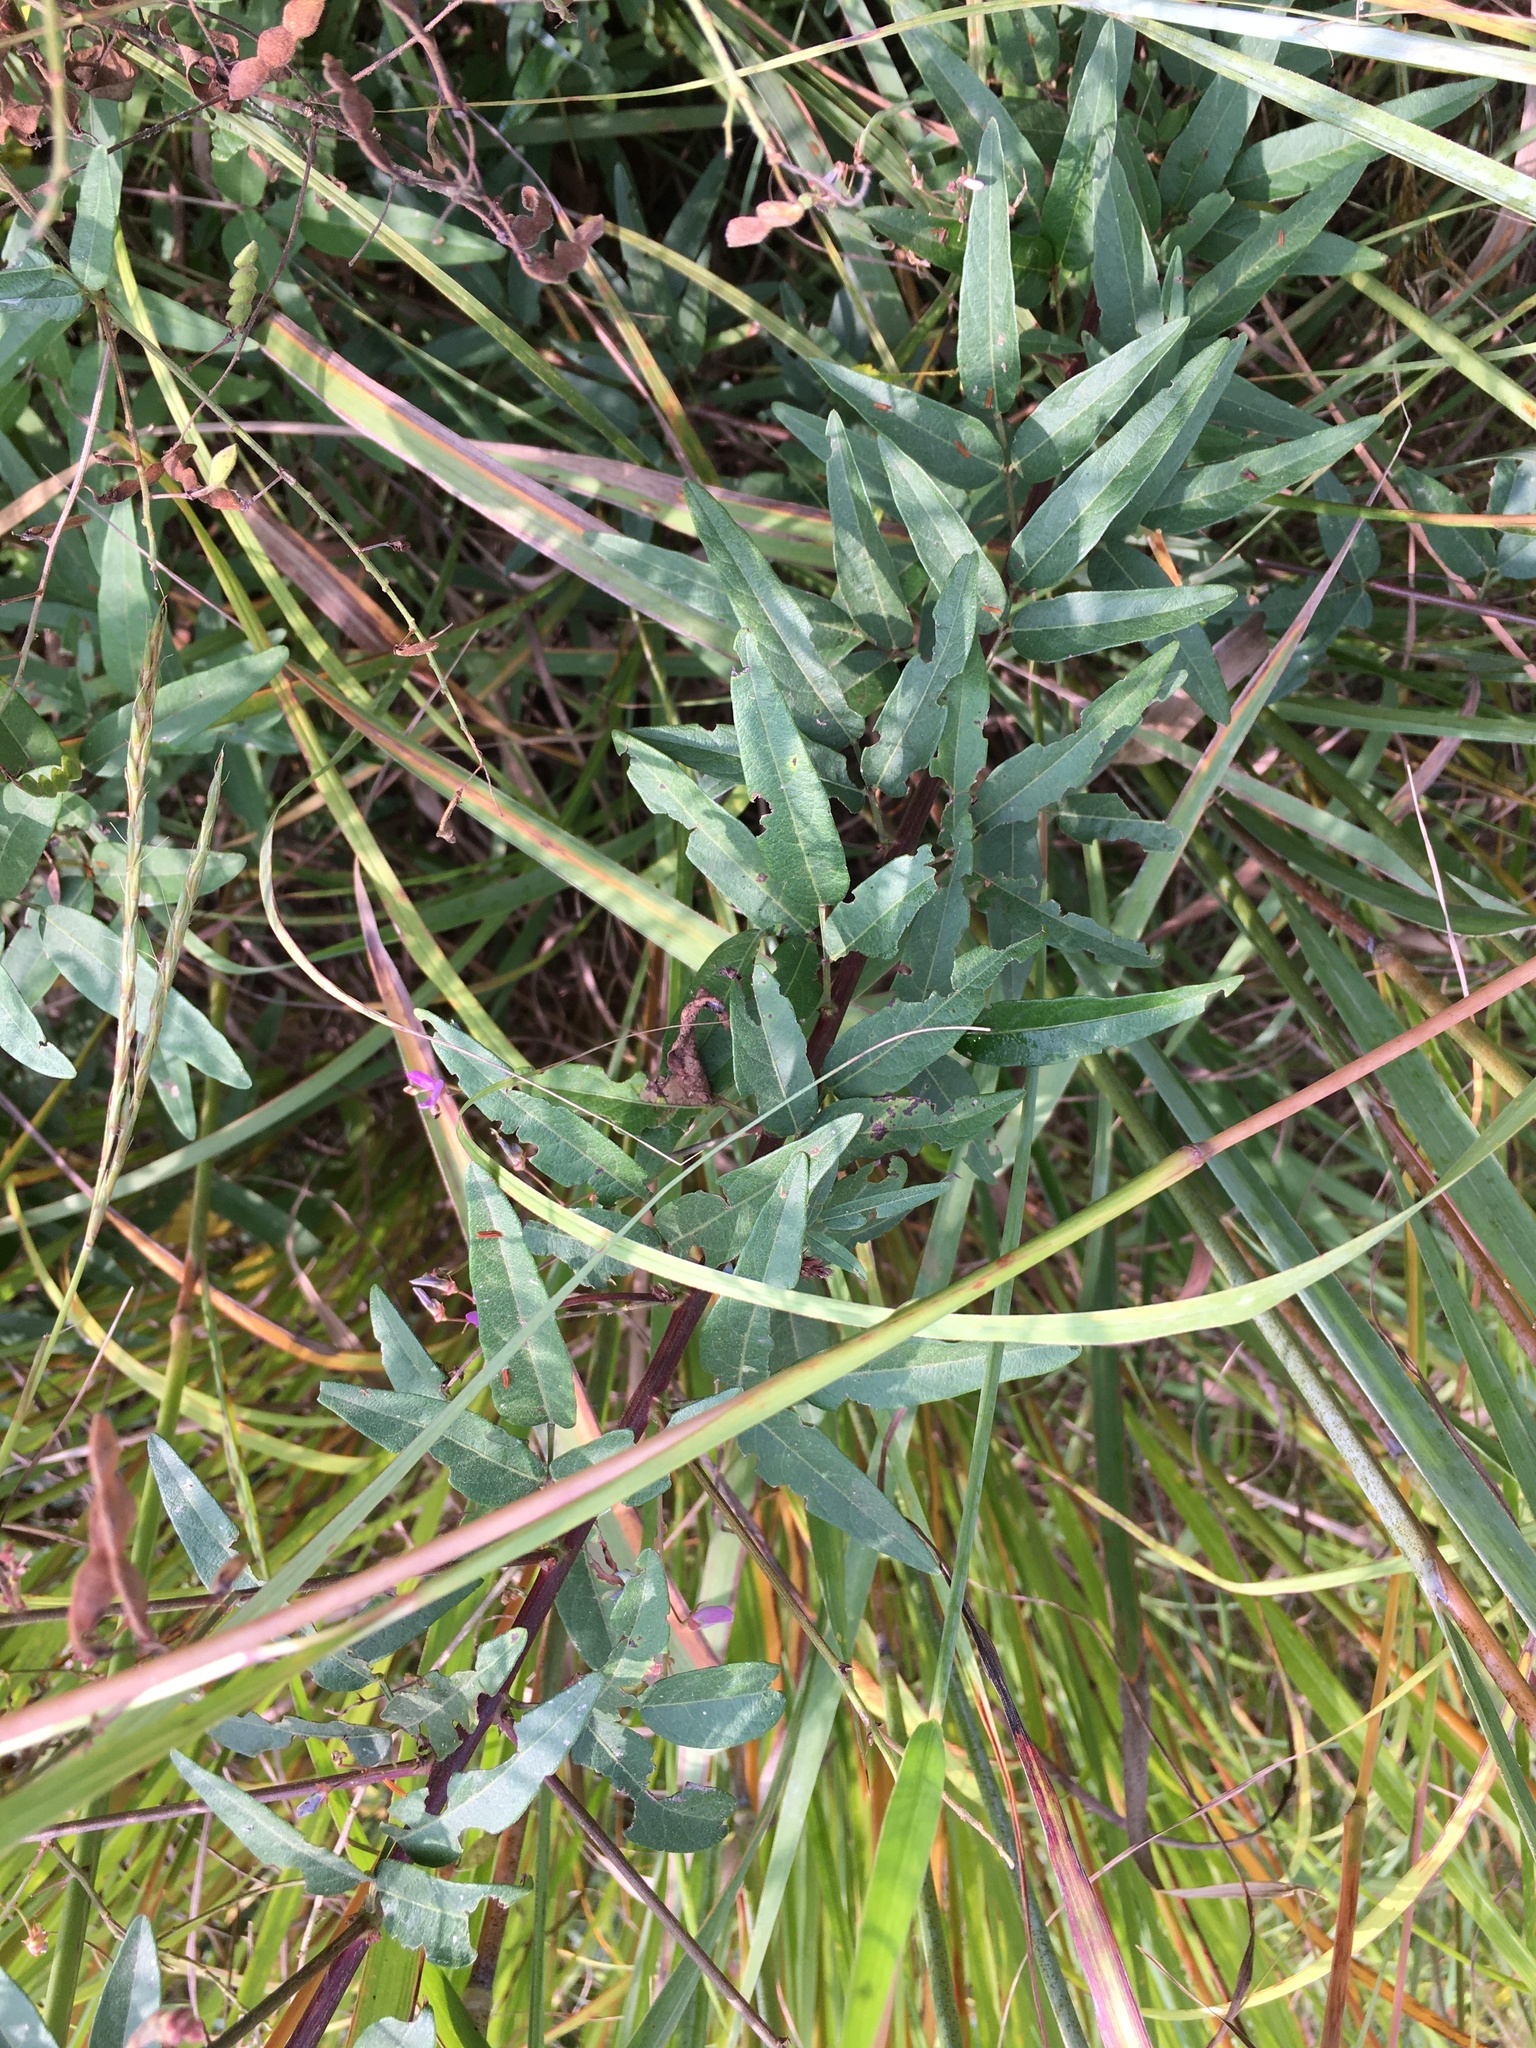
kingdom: Plantae
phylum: Tracheophyta
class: Magnoliopsida
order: Fabales
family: Fabaceae
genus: Desmodium
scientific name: Desmodium paniculatum
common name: Panicled tick-clover
